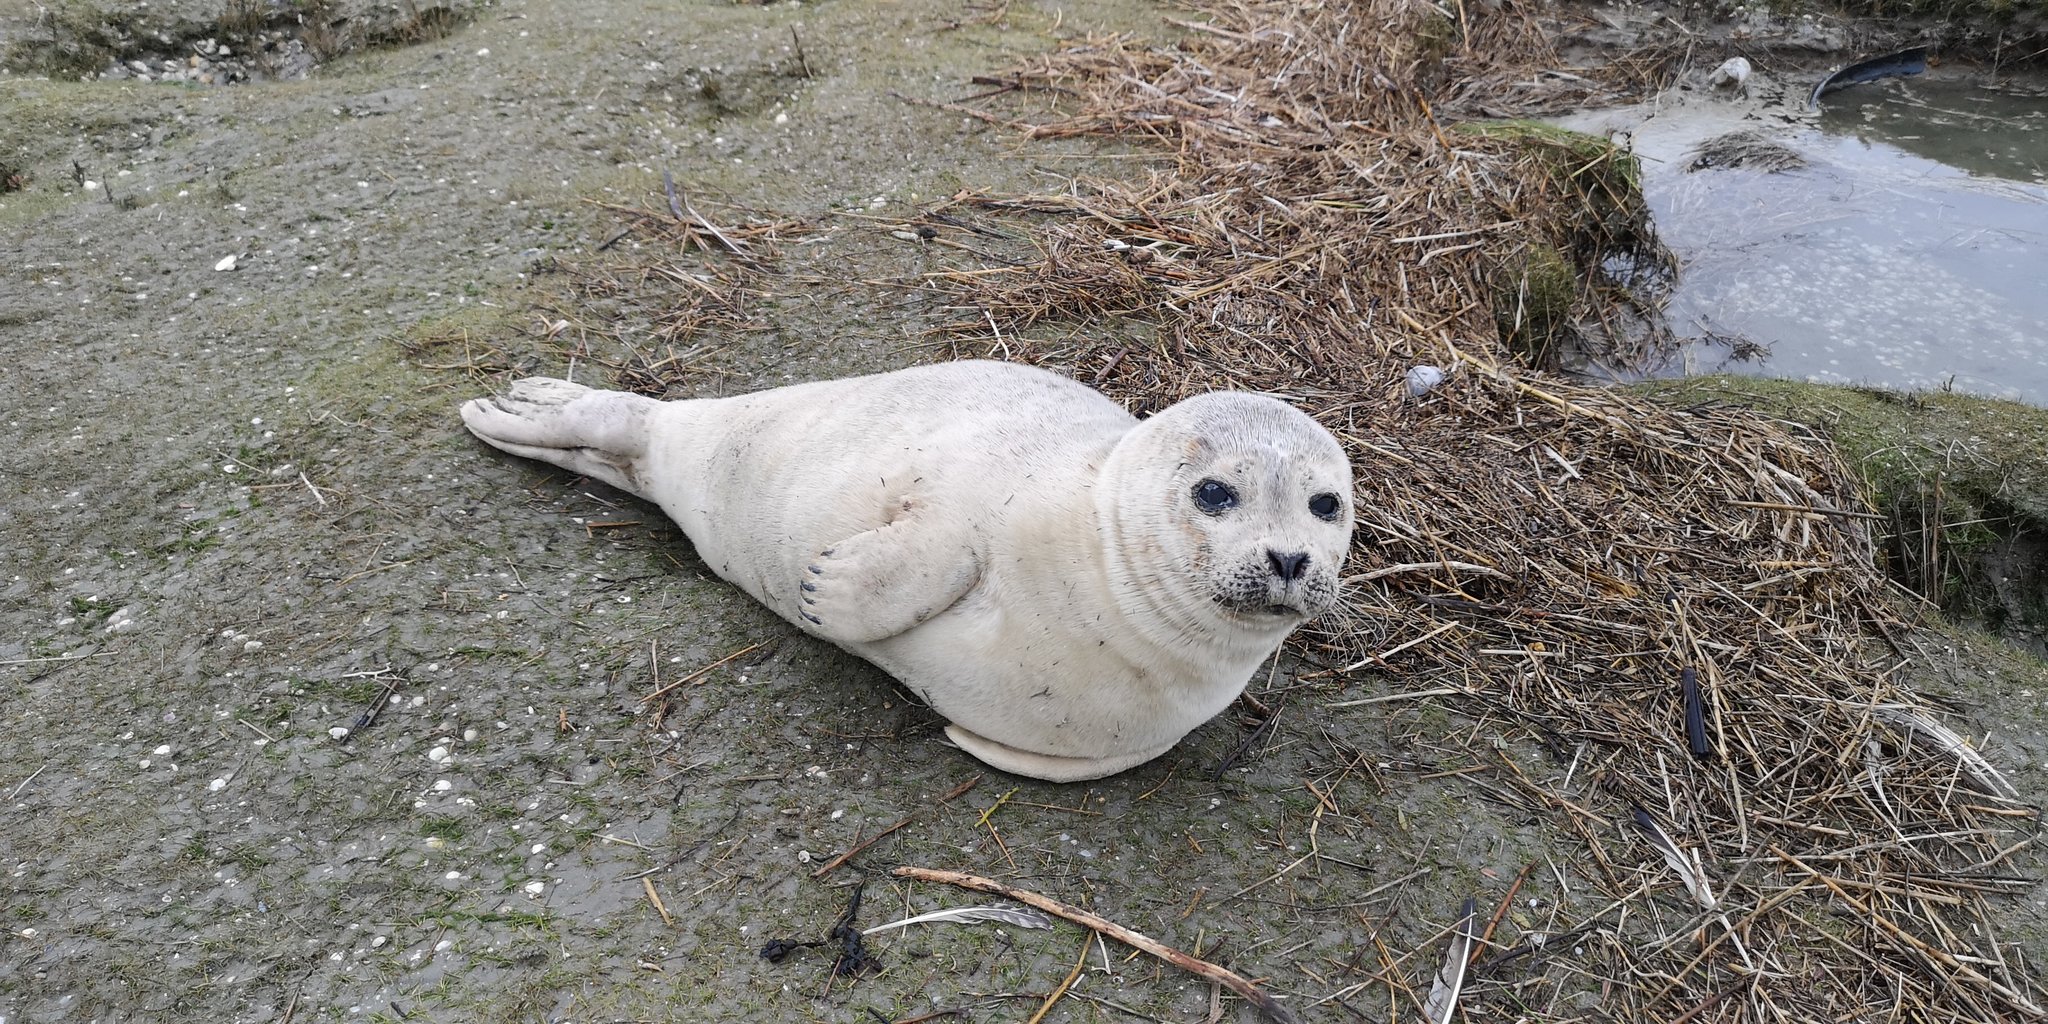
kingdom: Animalia
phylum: Chordata
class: Mammalia
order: Carnivora
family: Phocidae
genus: Phoca
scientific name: Phoca vitulina
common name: Harbor seal
